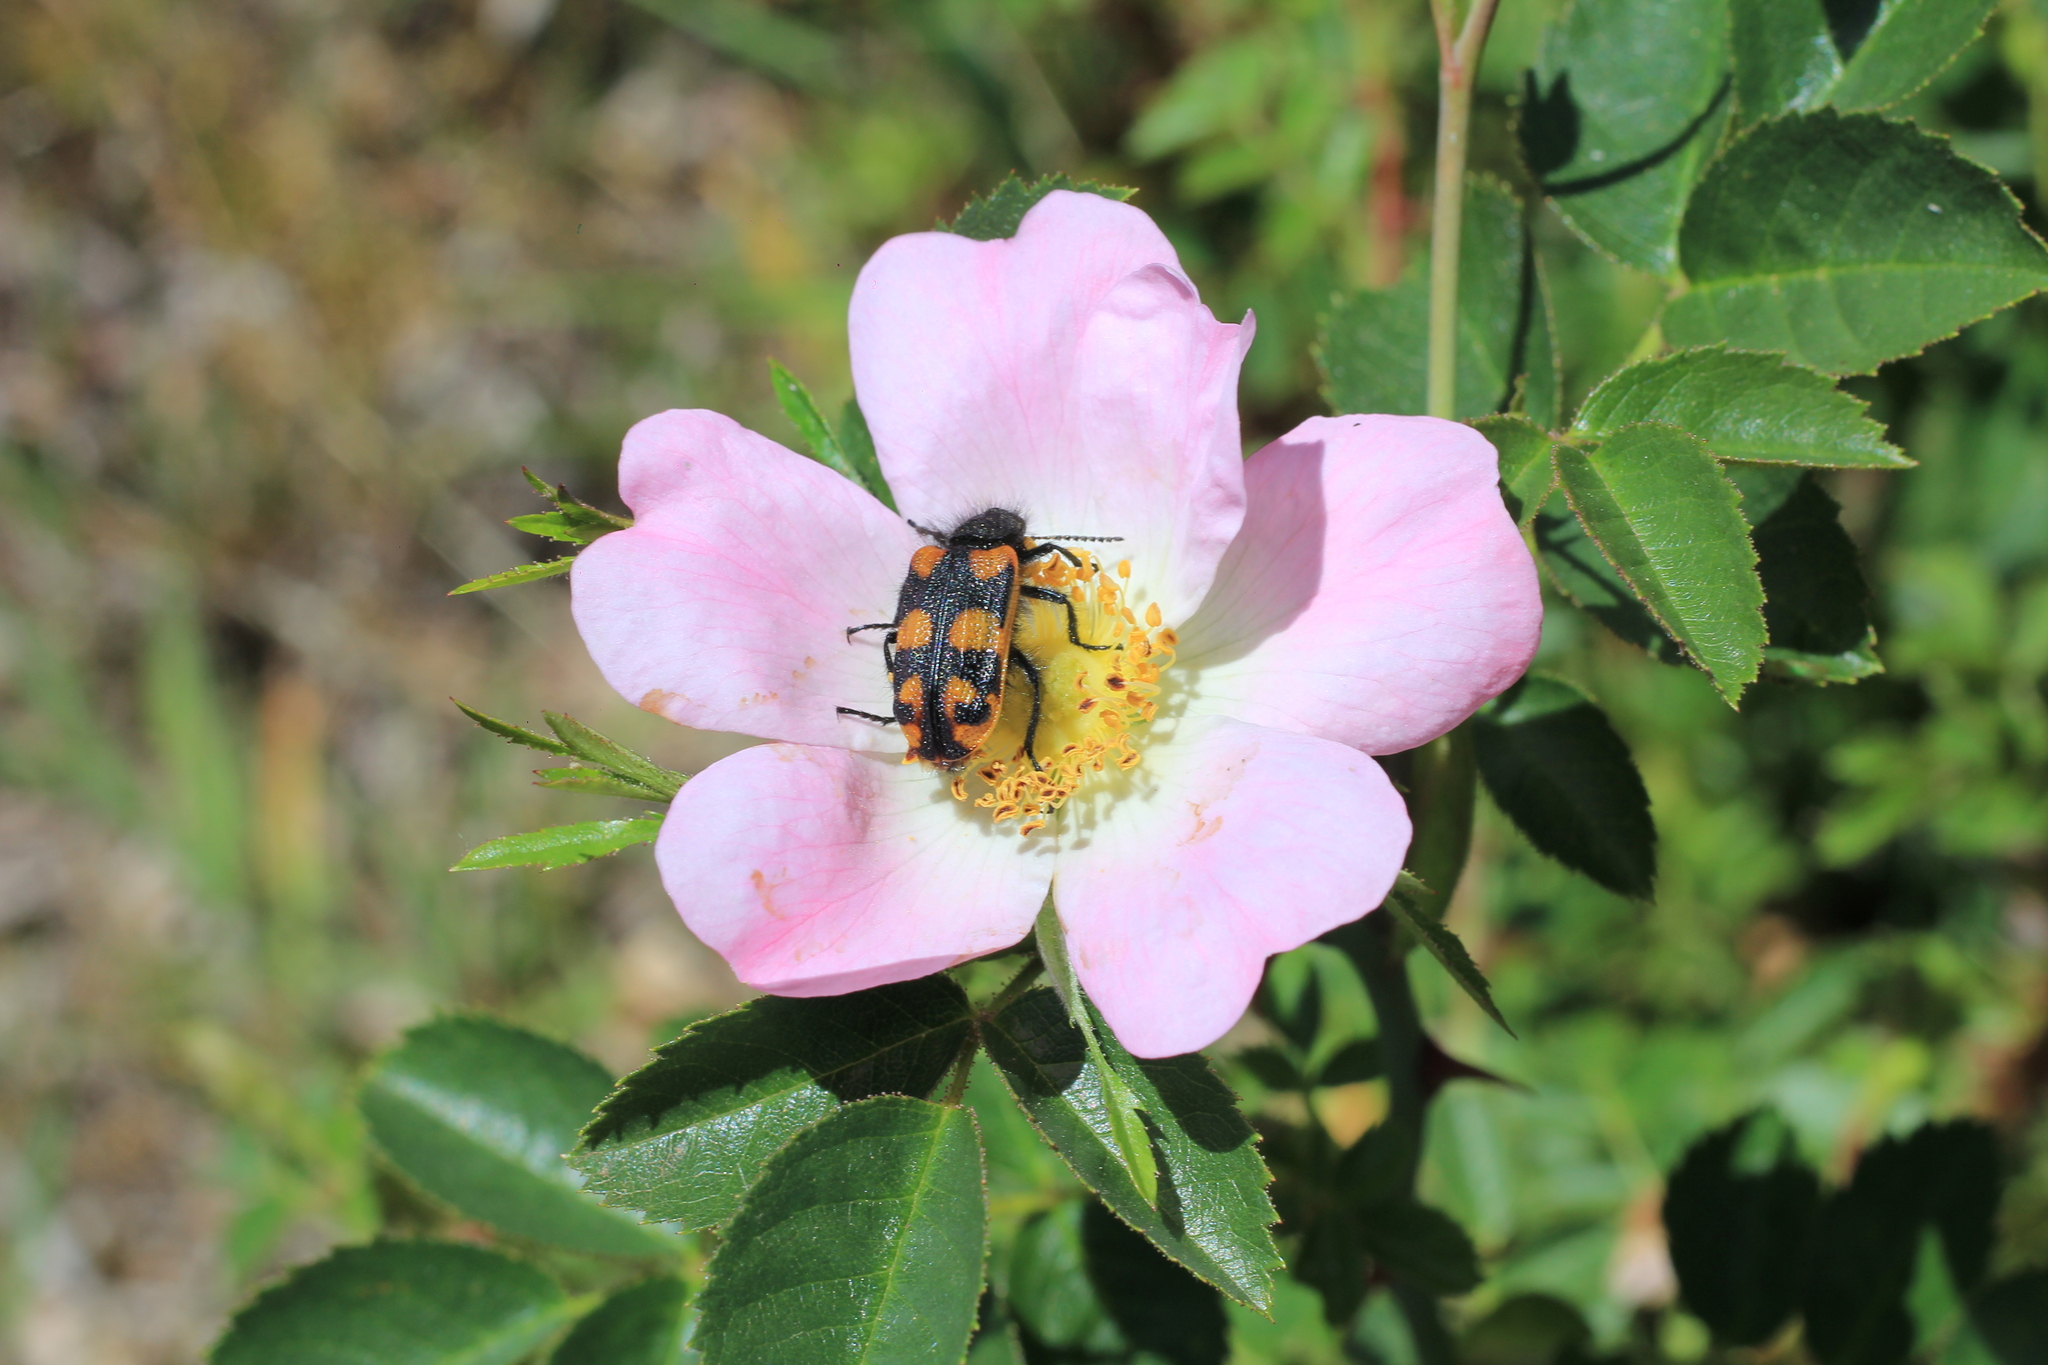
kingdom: Animalia
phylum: Arthropoda
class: Insecta
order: Coleoptera
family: Melyridae
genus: Astylus
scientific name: Astylus
